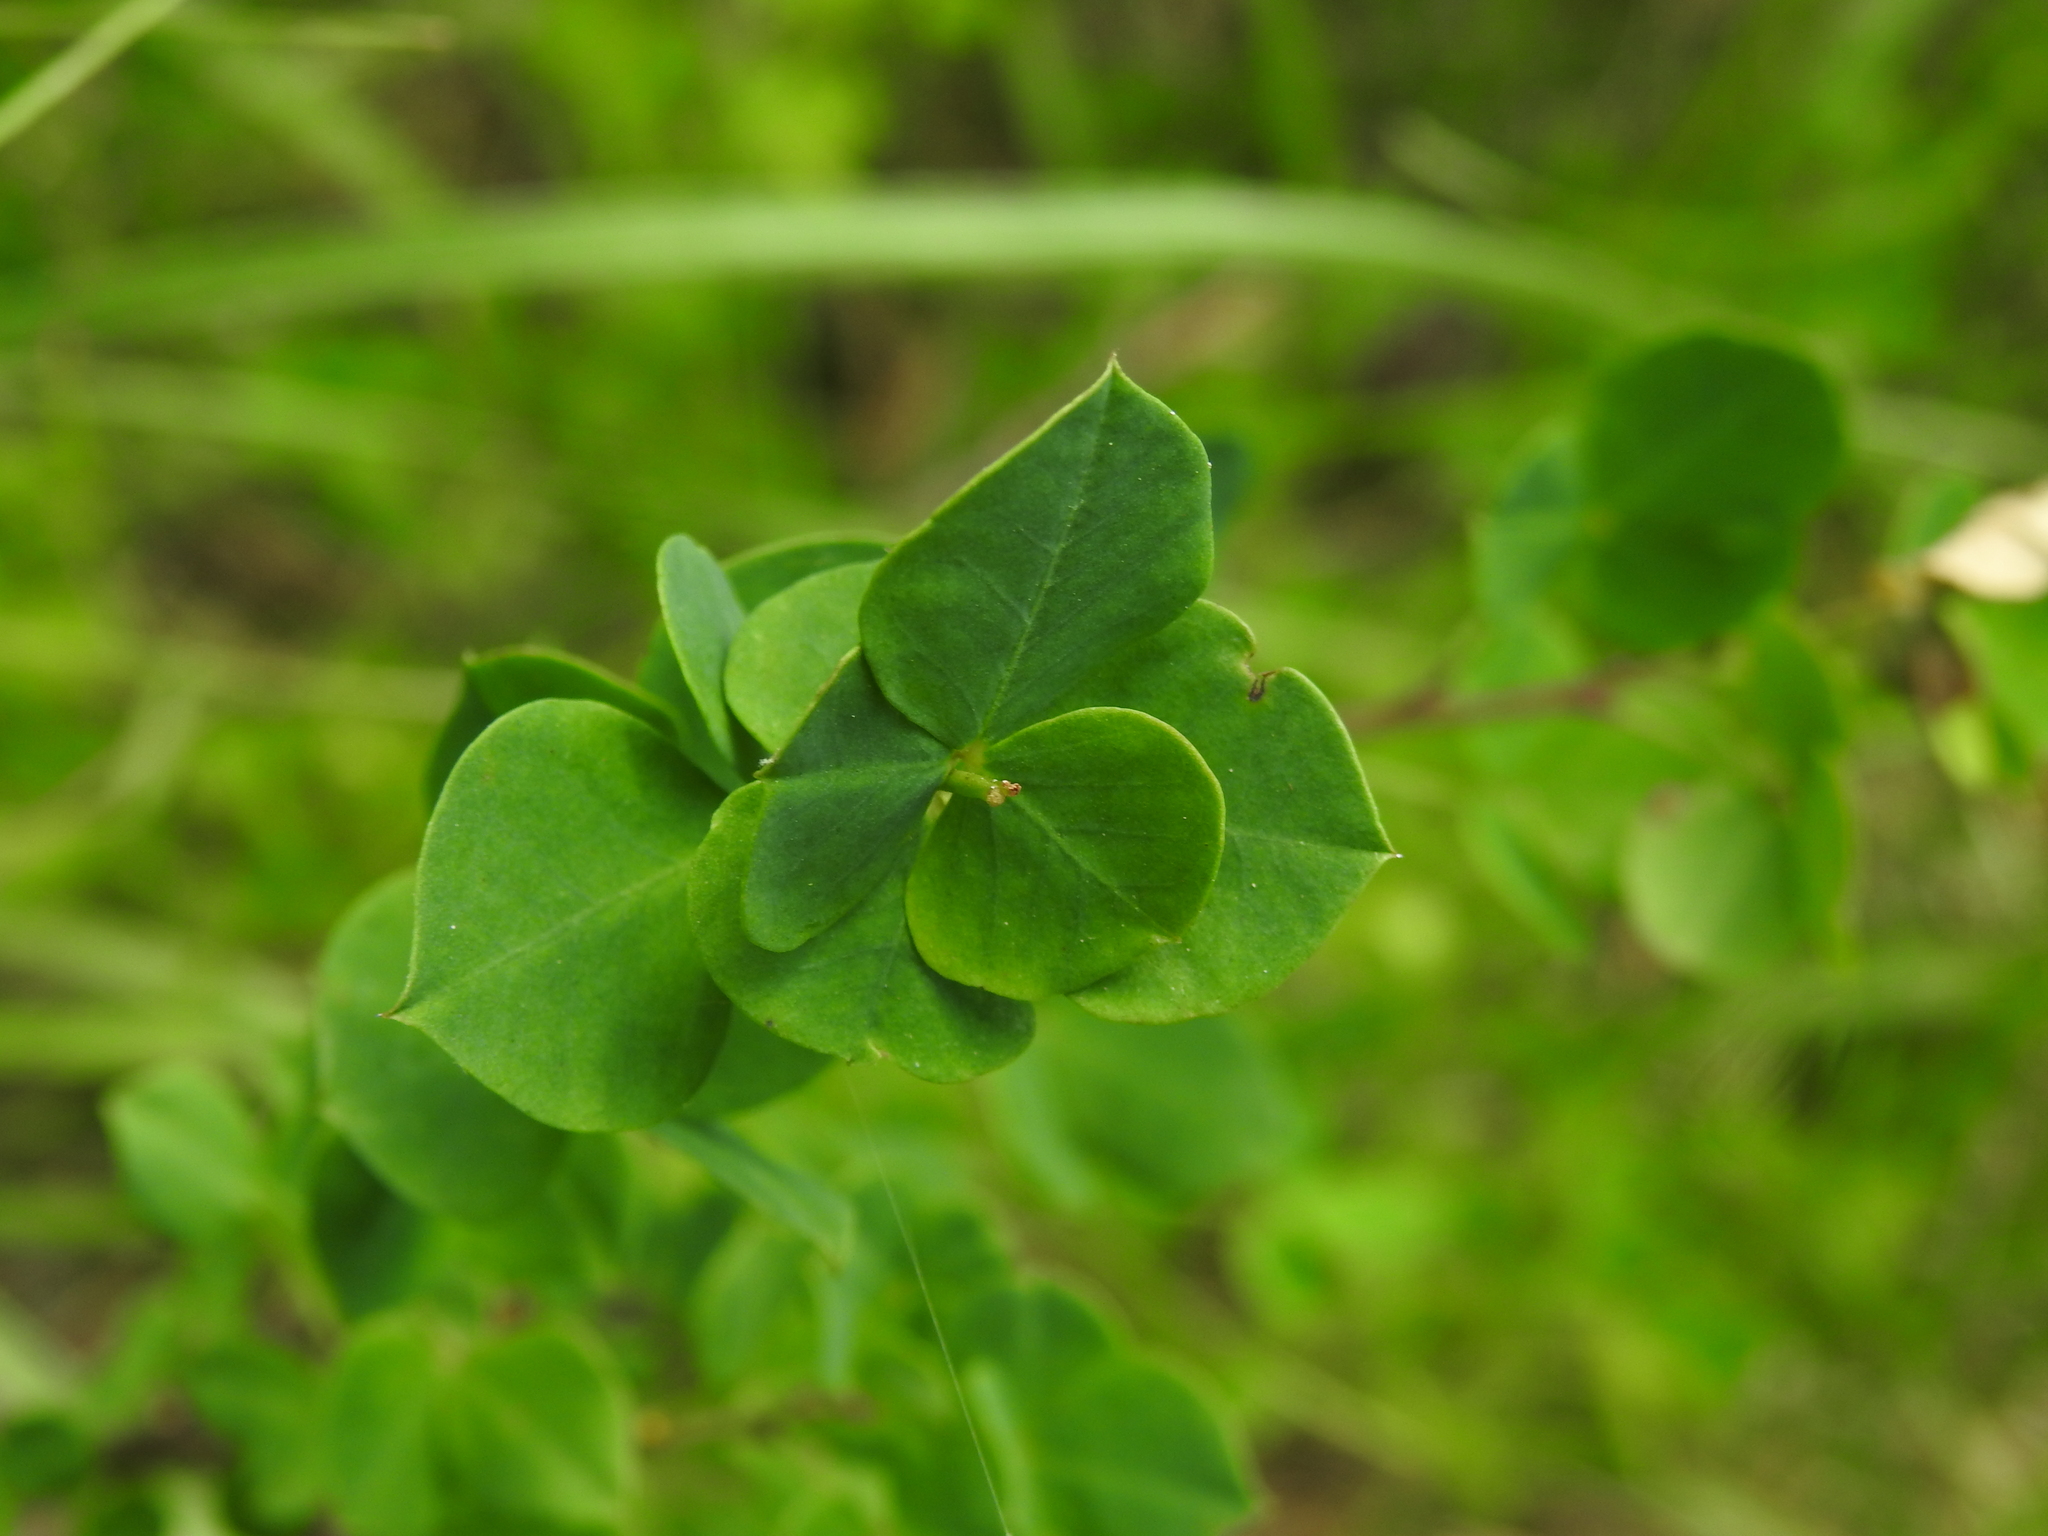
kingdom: Plantae
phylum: Tracheophyta
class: Magnoliopsida
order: Fabales
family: Fabaceae
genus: Cytisophyllum
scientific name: Cytisophyllum sessilifolium
